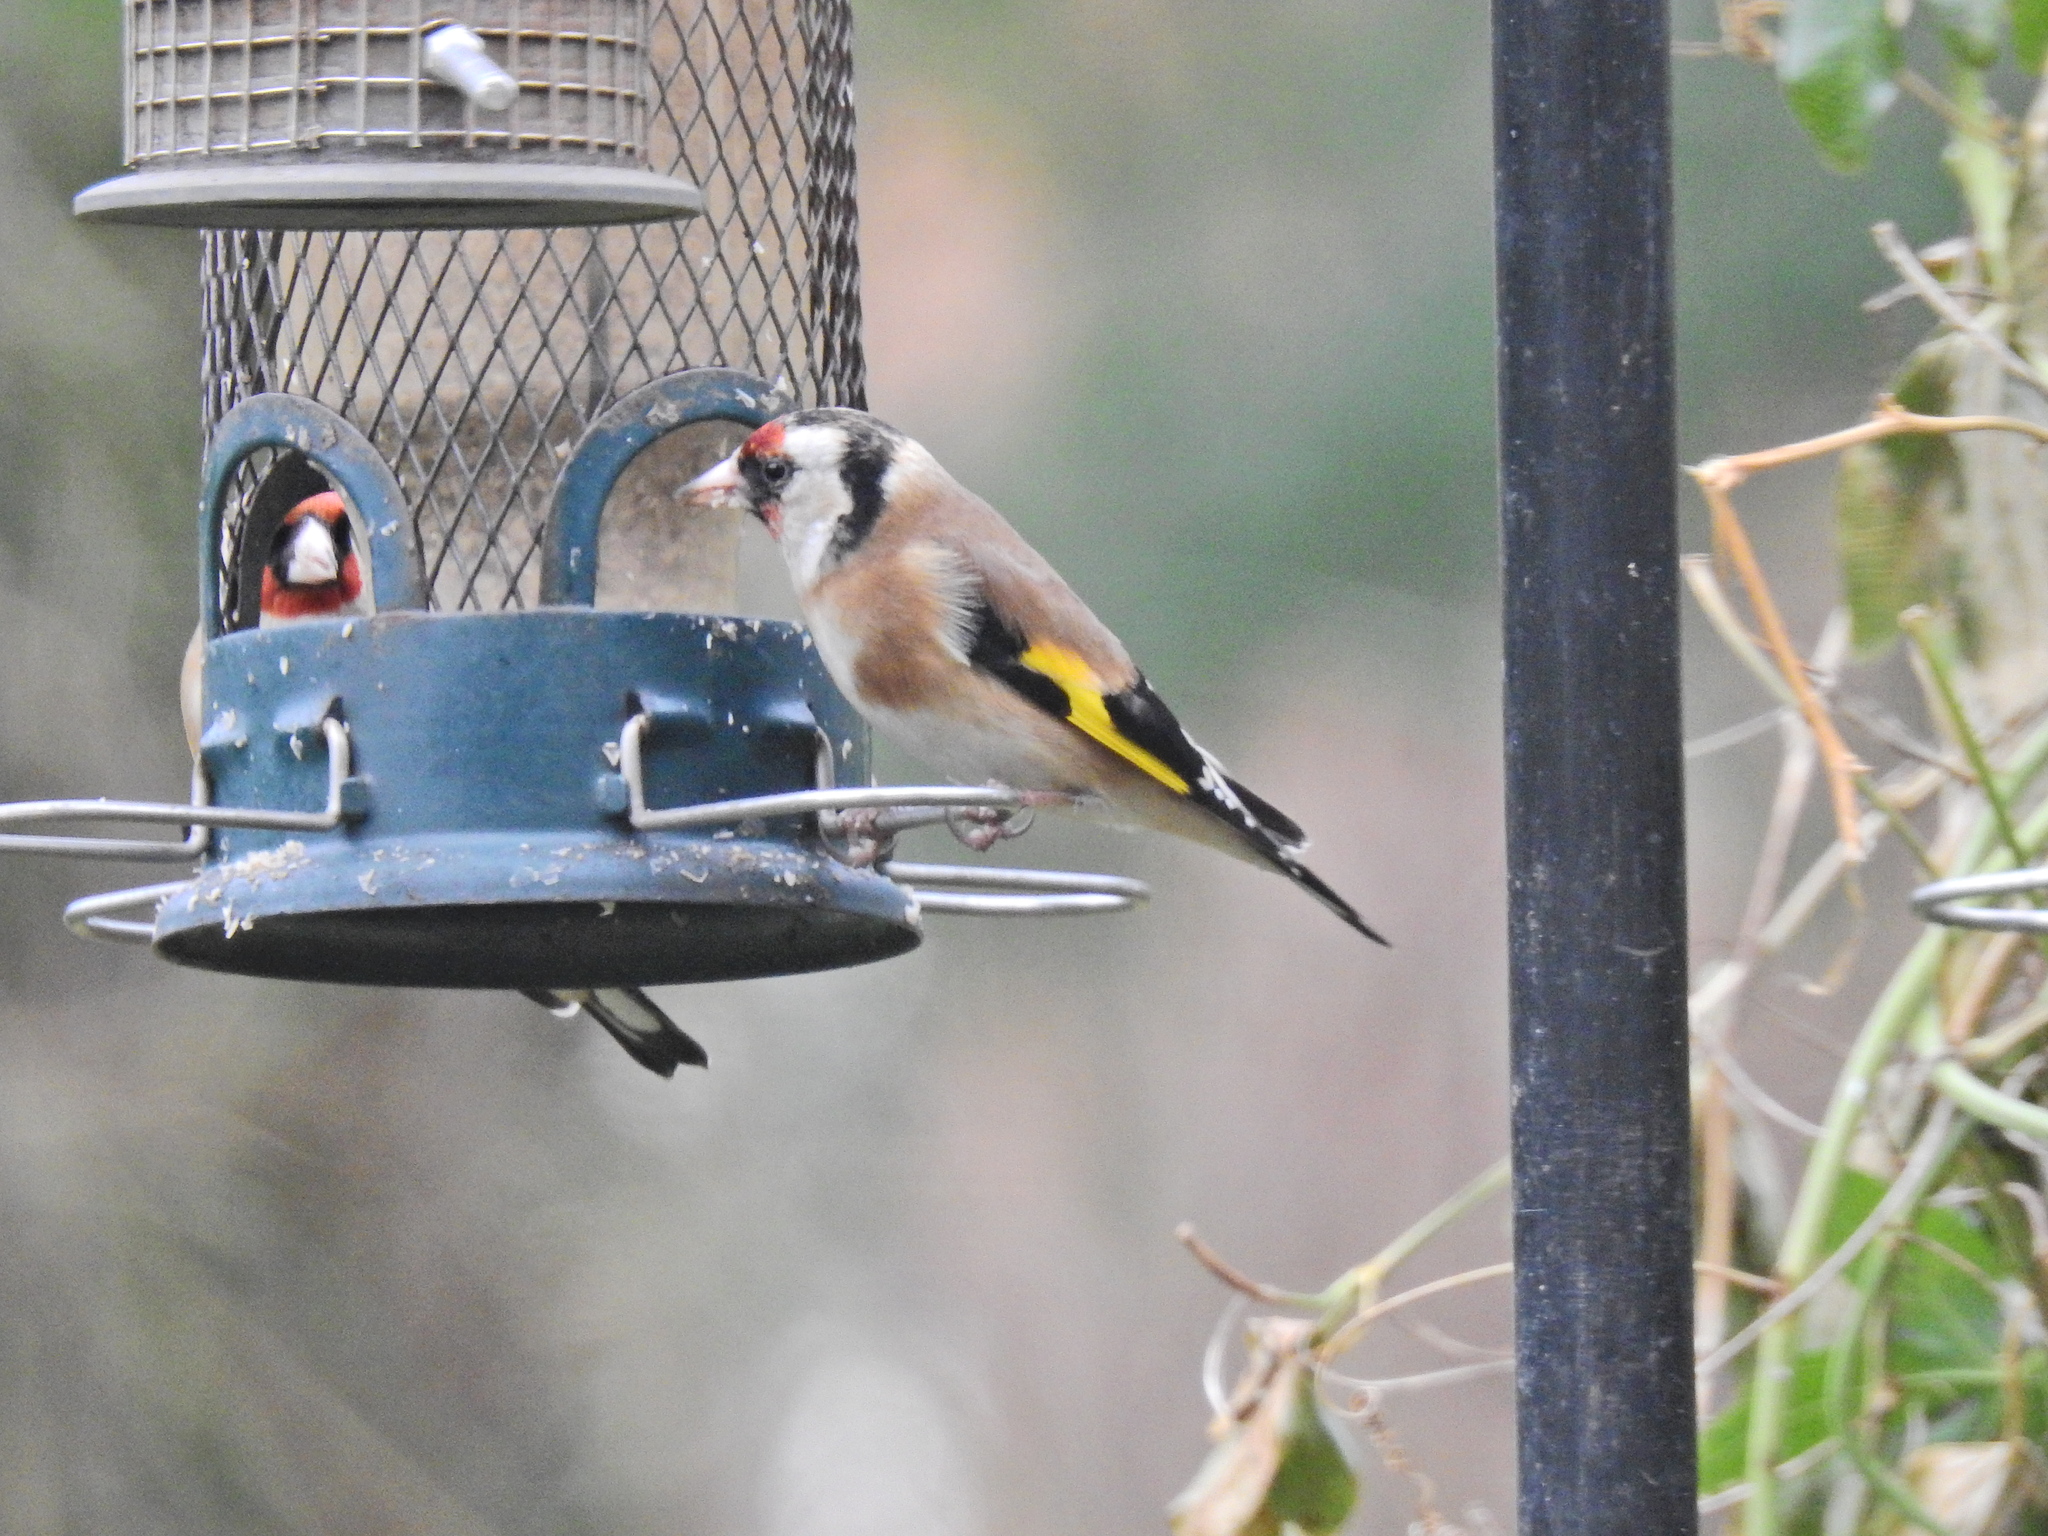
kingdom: Animalia
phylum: Chordata
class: Aves
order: Passeriformes
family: Fringillidae
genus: Carduelis
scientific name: Carduelis carduelis
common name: European goldfinch
